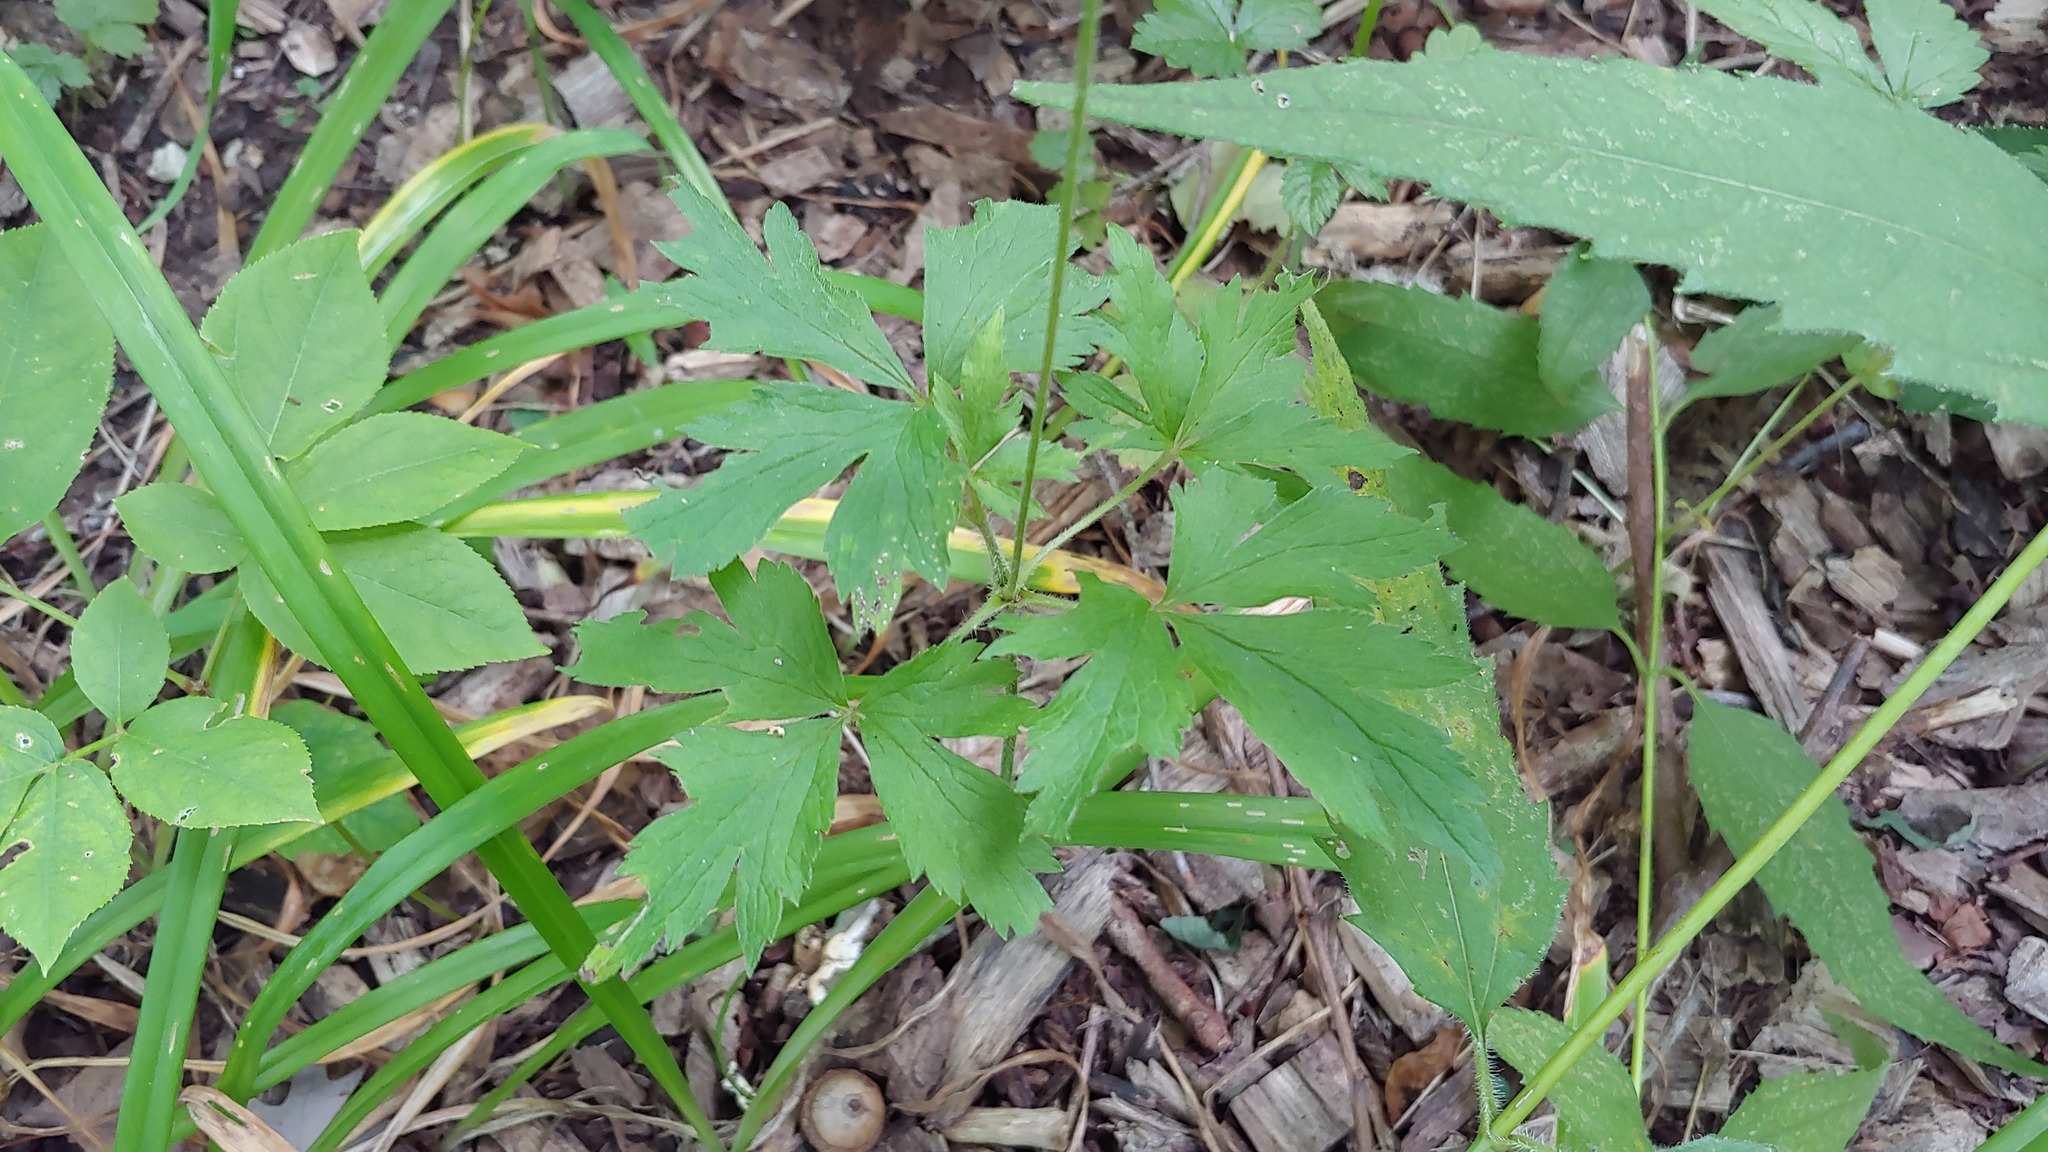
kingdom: Plantae
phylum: Tracheophyta
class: Magnoliopsida
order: Ranunculales
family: Ranunculaceae
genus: Anemone
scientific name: Anemone virginiana
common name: Tall anemone
